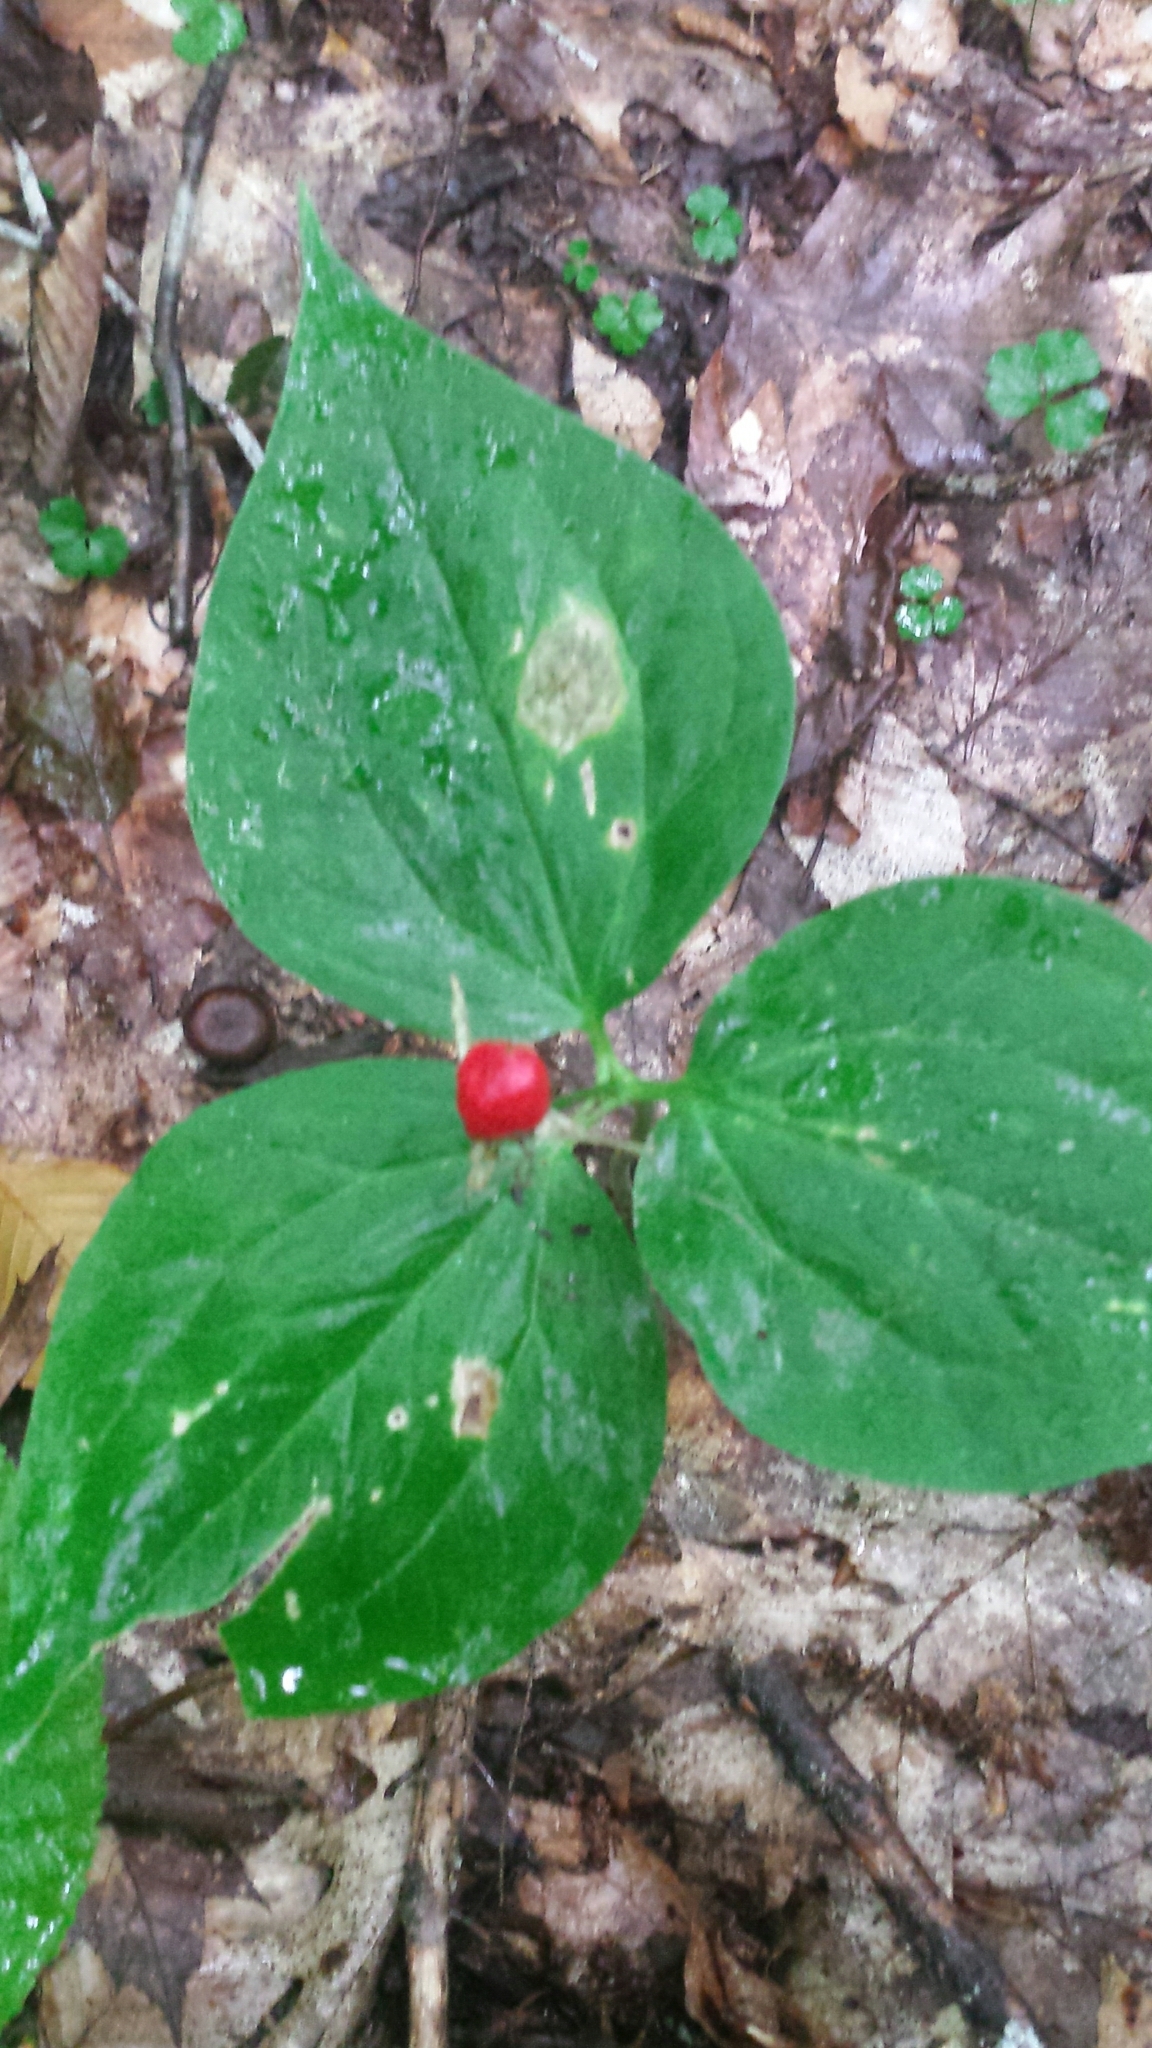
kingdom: Plantae
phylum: Tracheophyta
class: Liliopsida
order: Liliales
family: Melanthiaceae
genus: Trillium
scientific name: Trillium undulatum
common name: Paint trillium
